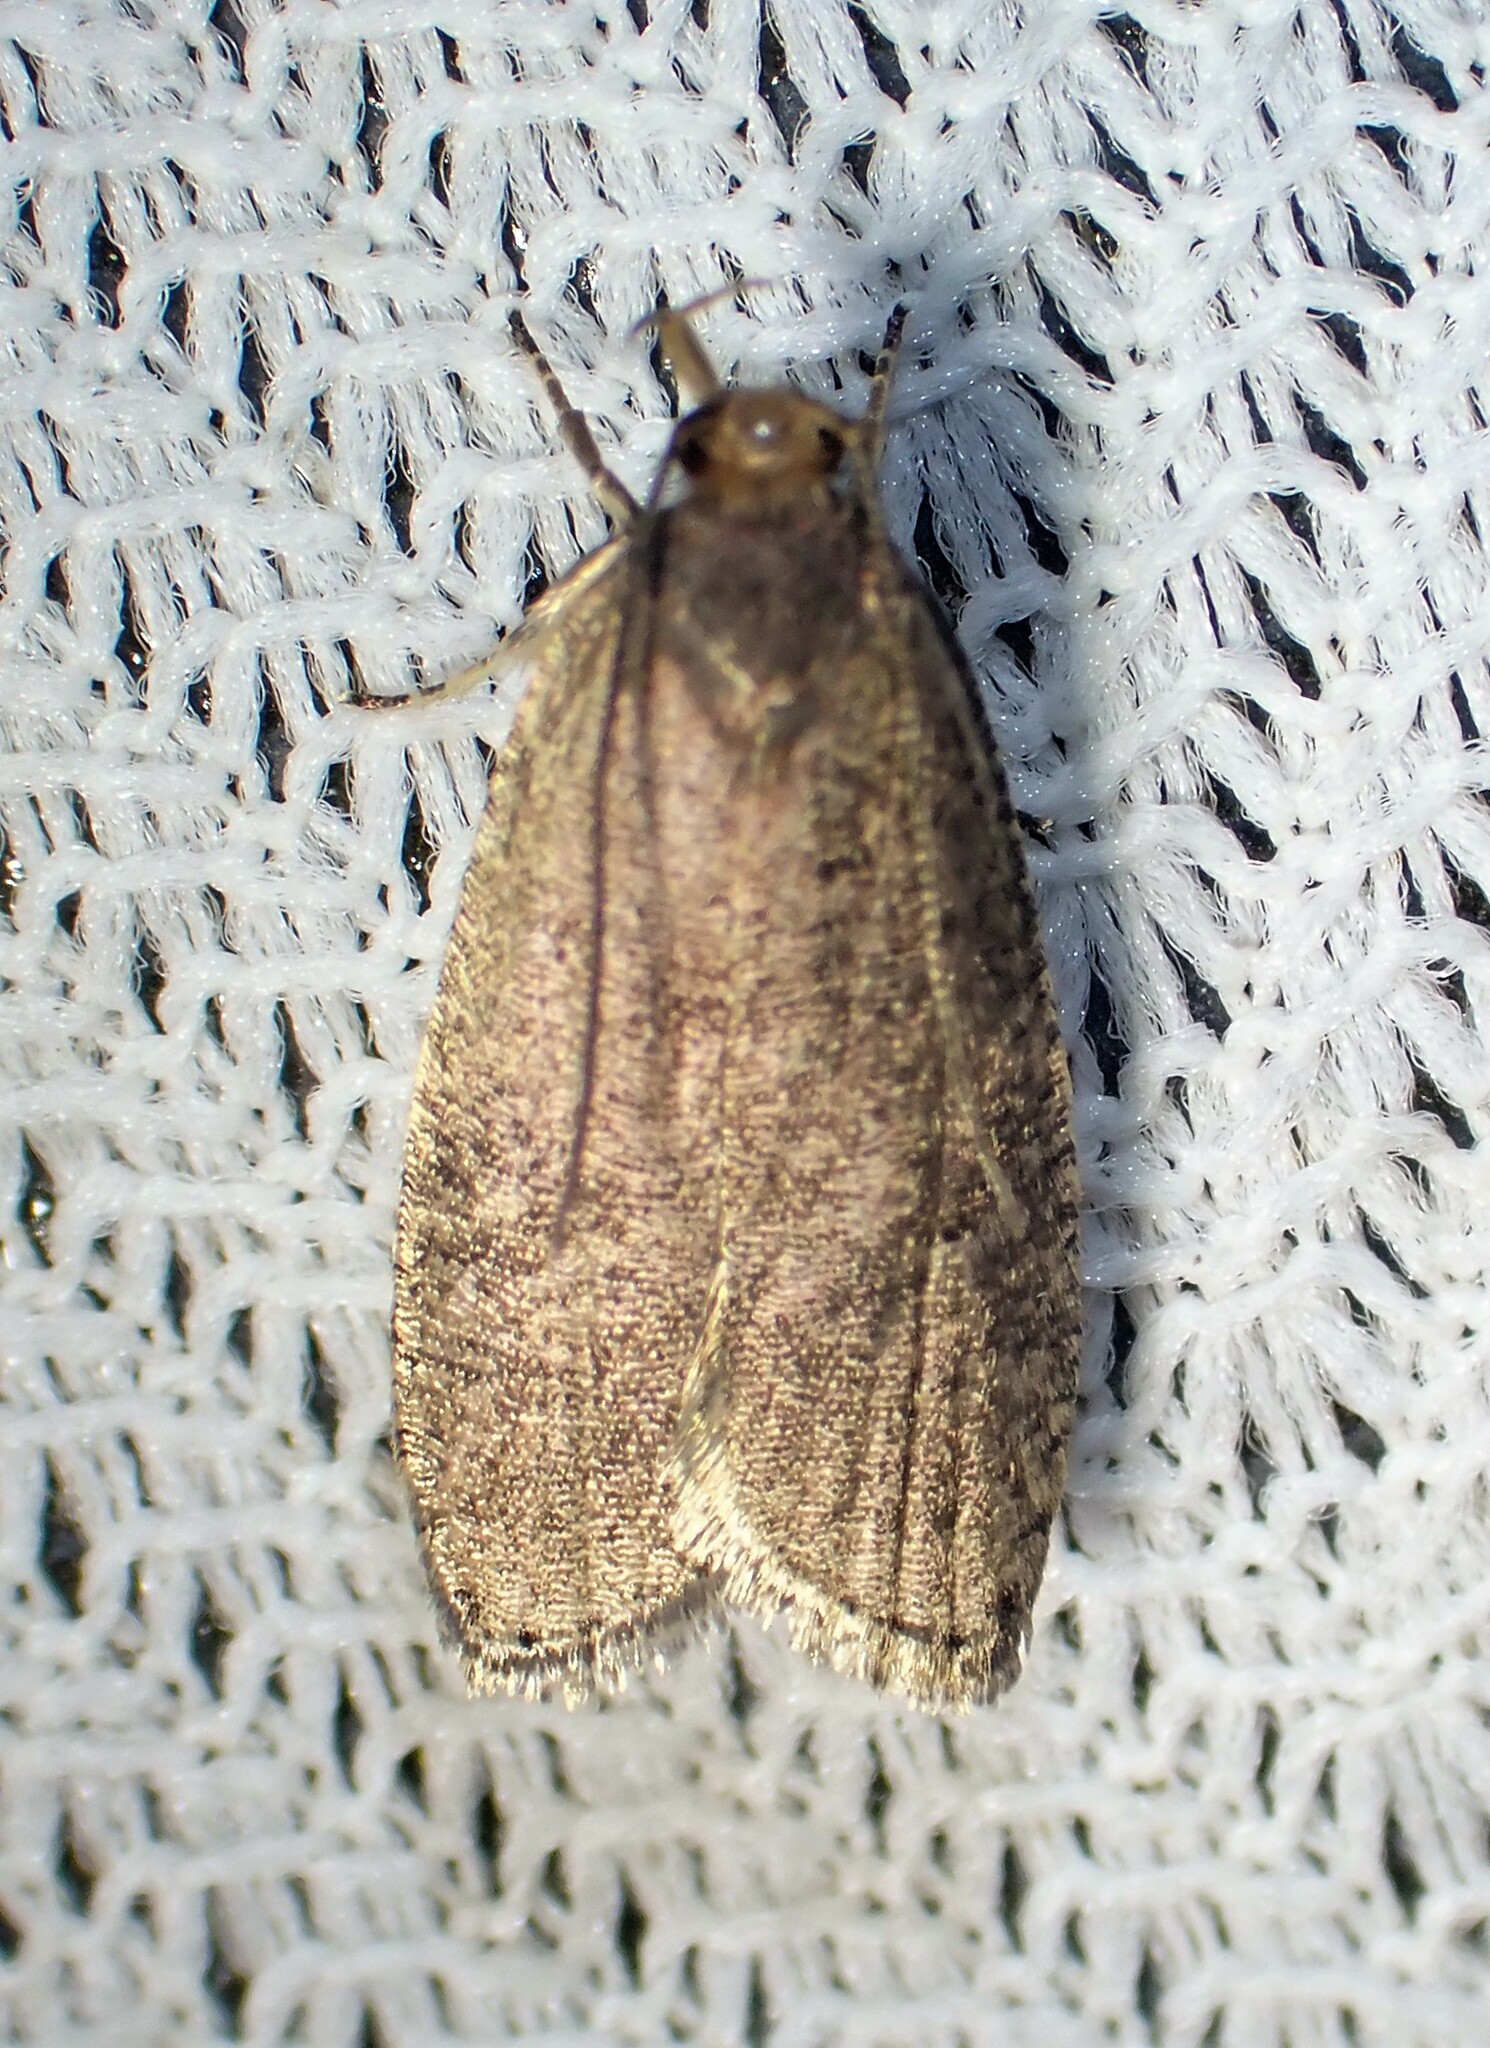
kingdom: Animalia
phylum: Arthropoda
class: Insecta
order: Lepidoptera
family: Depressariidae
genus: Psilocorsis
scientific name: Psilocorsis reflexella
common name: Dotted leaftier moth
